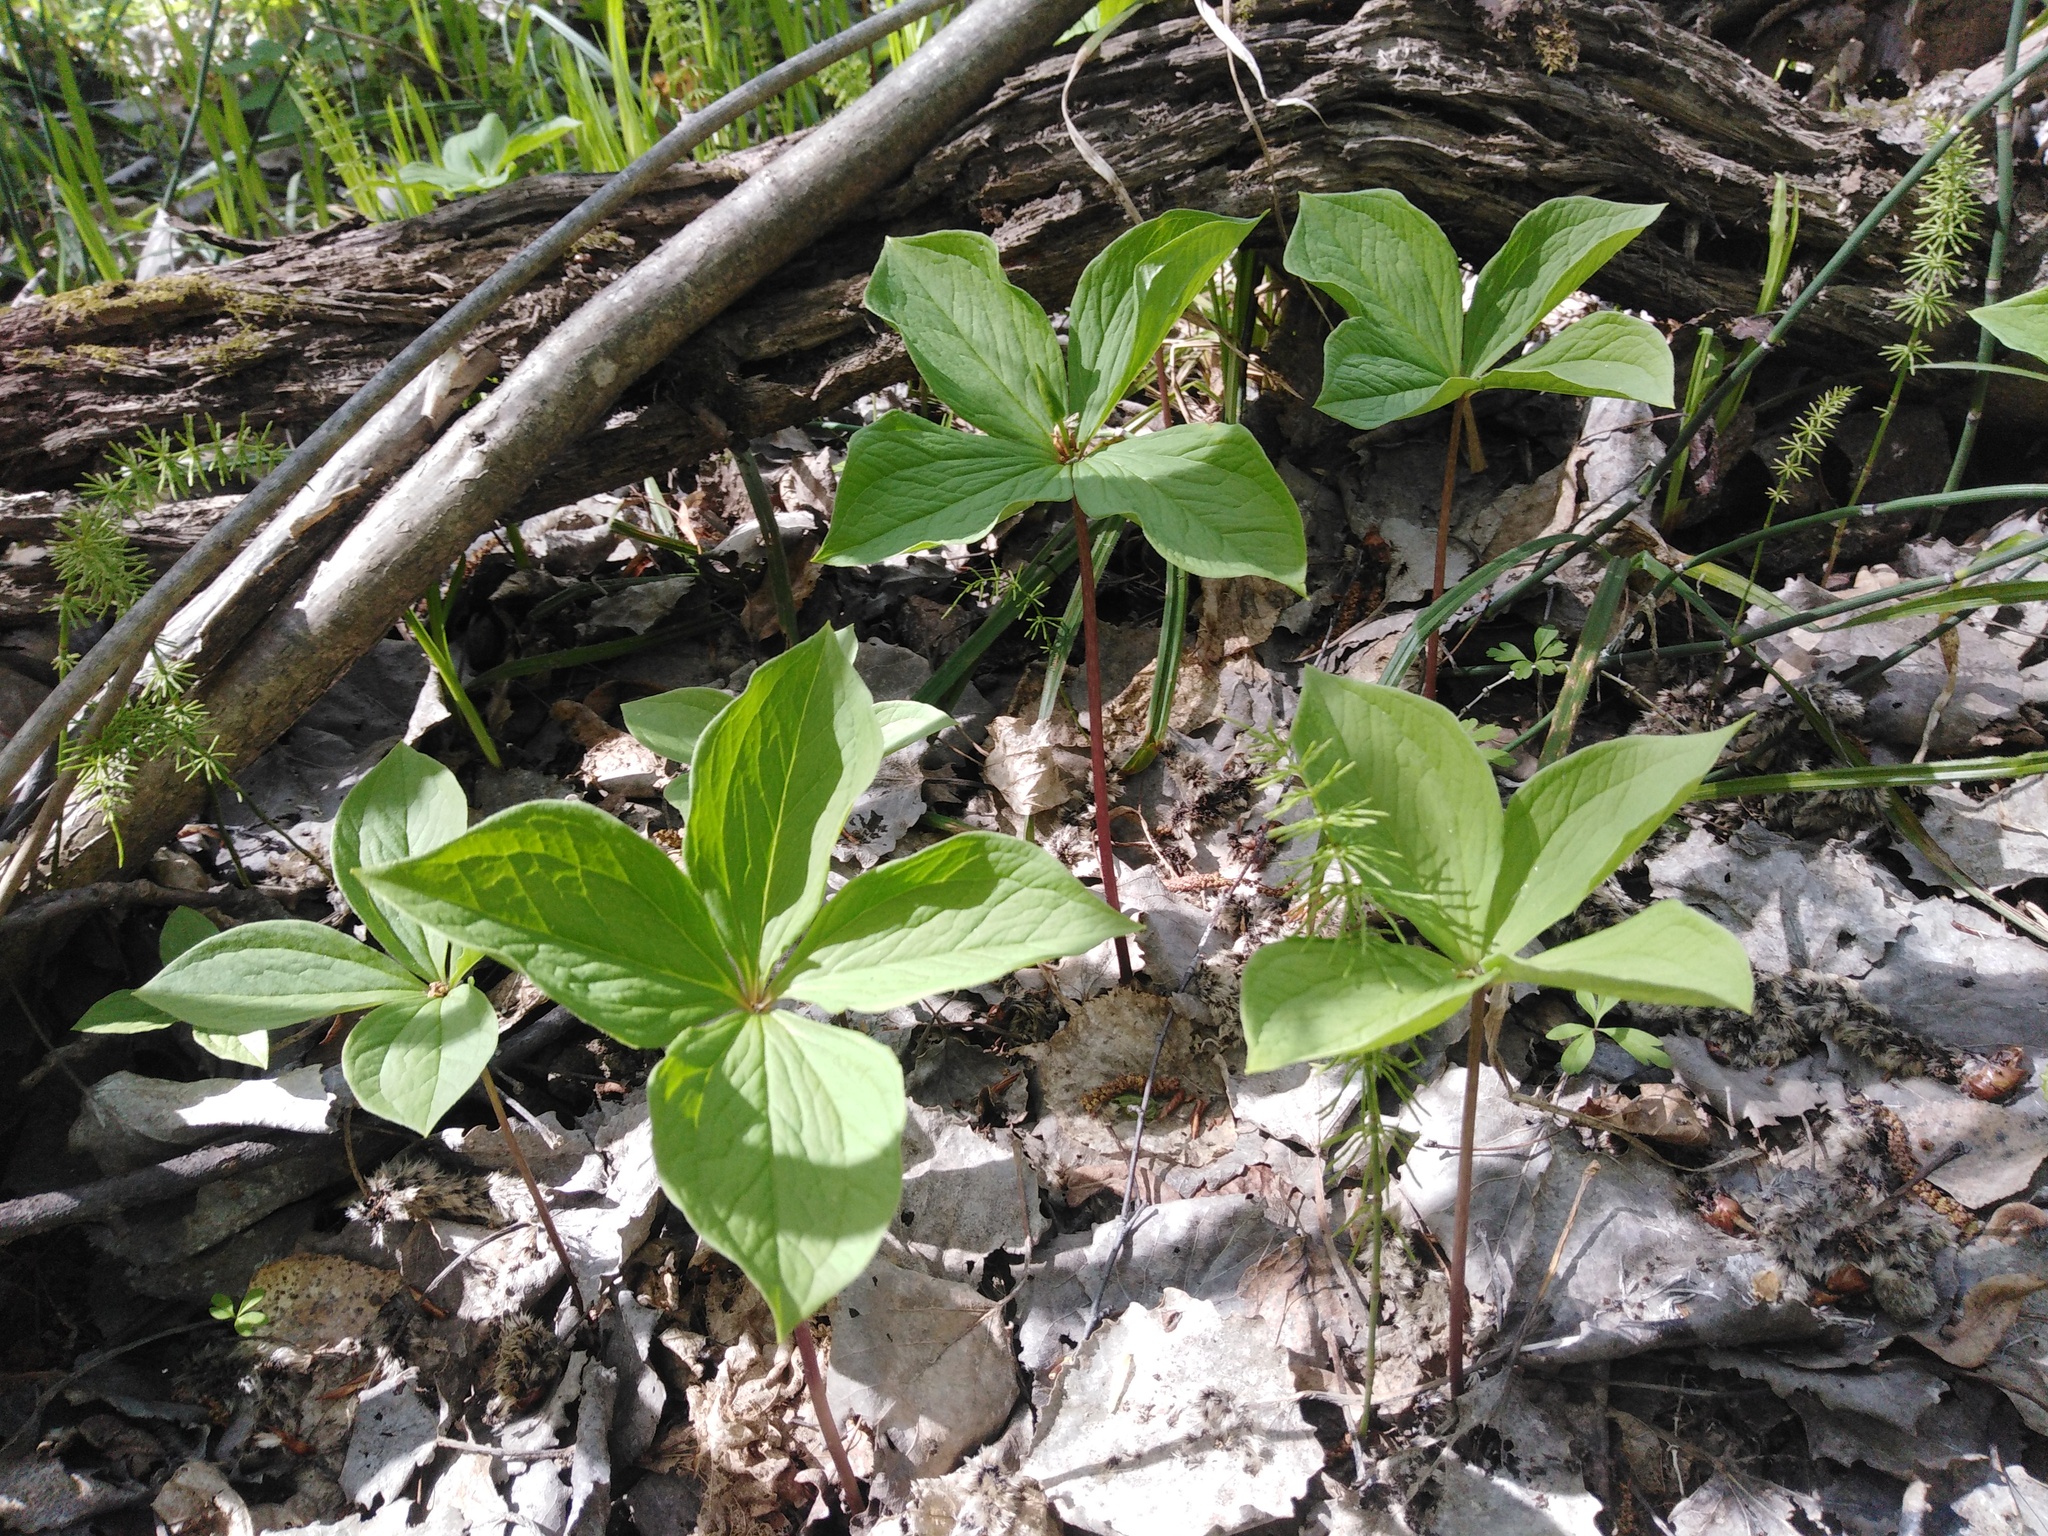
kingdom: Plantae
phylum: Tracheophyta
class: Liliopsida
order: Liliales
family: Melanthiaceae
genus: Paris
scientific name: Paris quadrifolia
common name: Herb-paris
